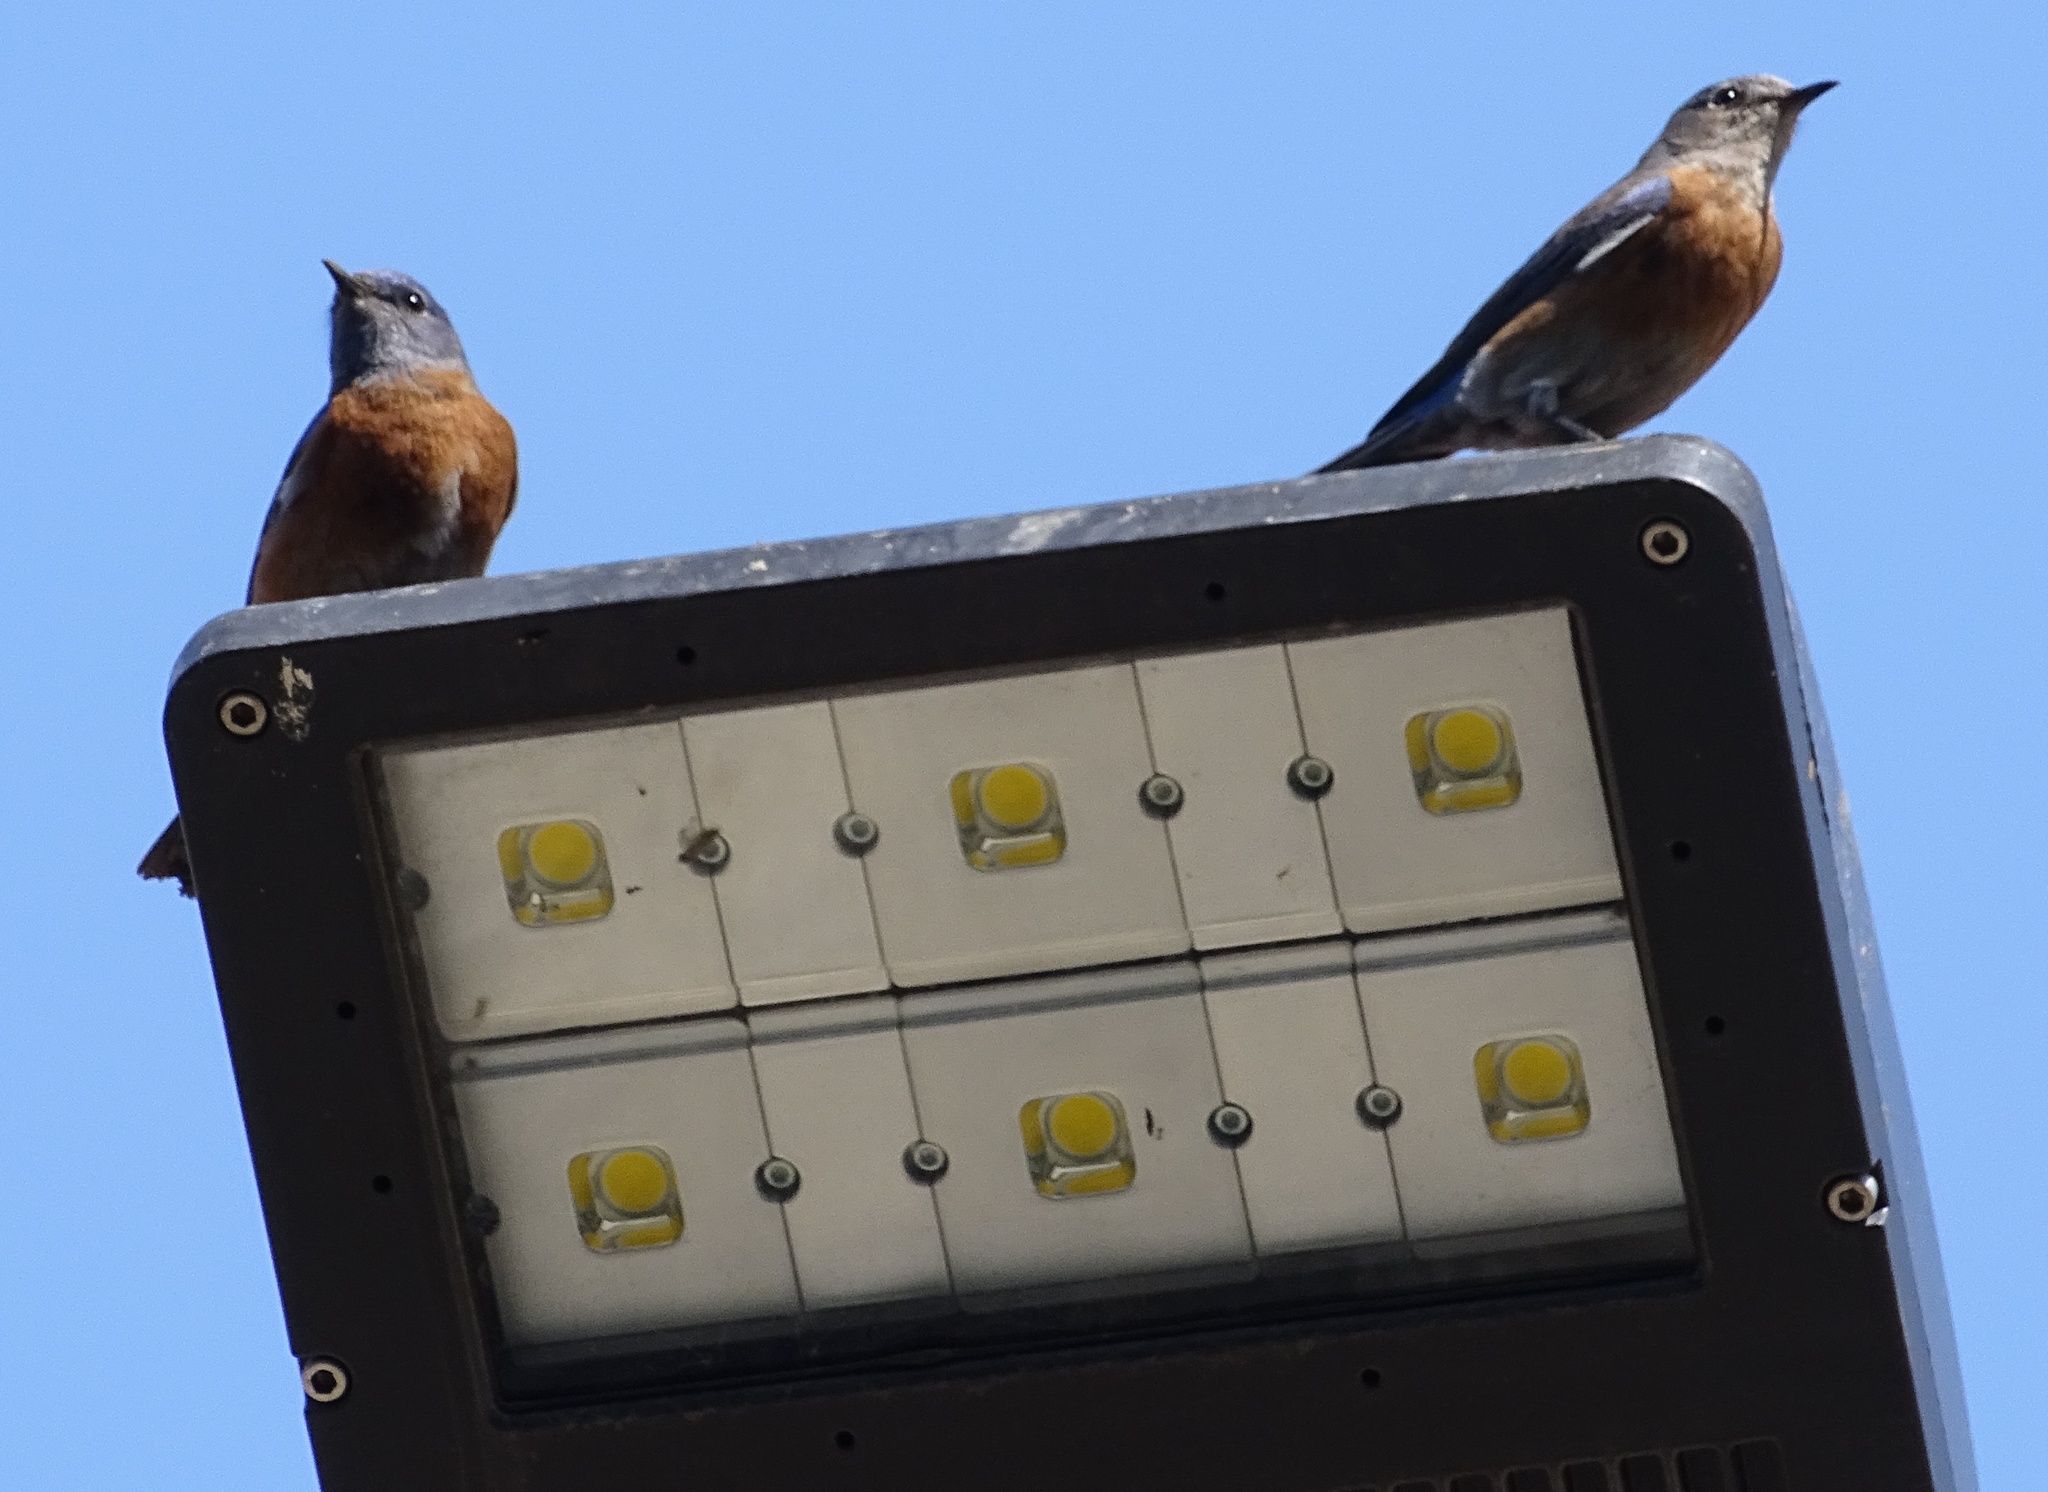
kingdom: Animalia
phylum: Chordata
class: Aves
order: Passeriformes
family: Turdidae
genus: Sialia
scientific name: Sialia mexicana
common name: Western bluebird
